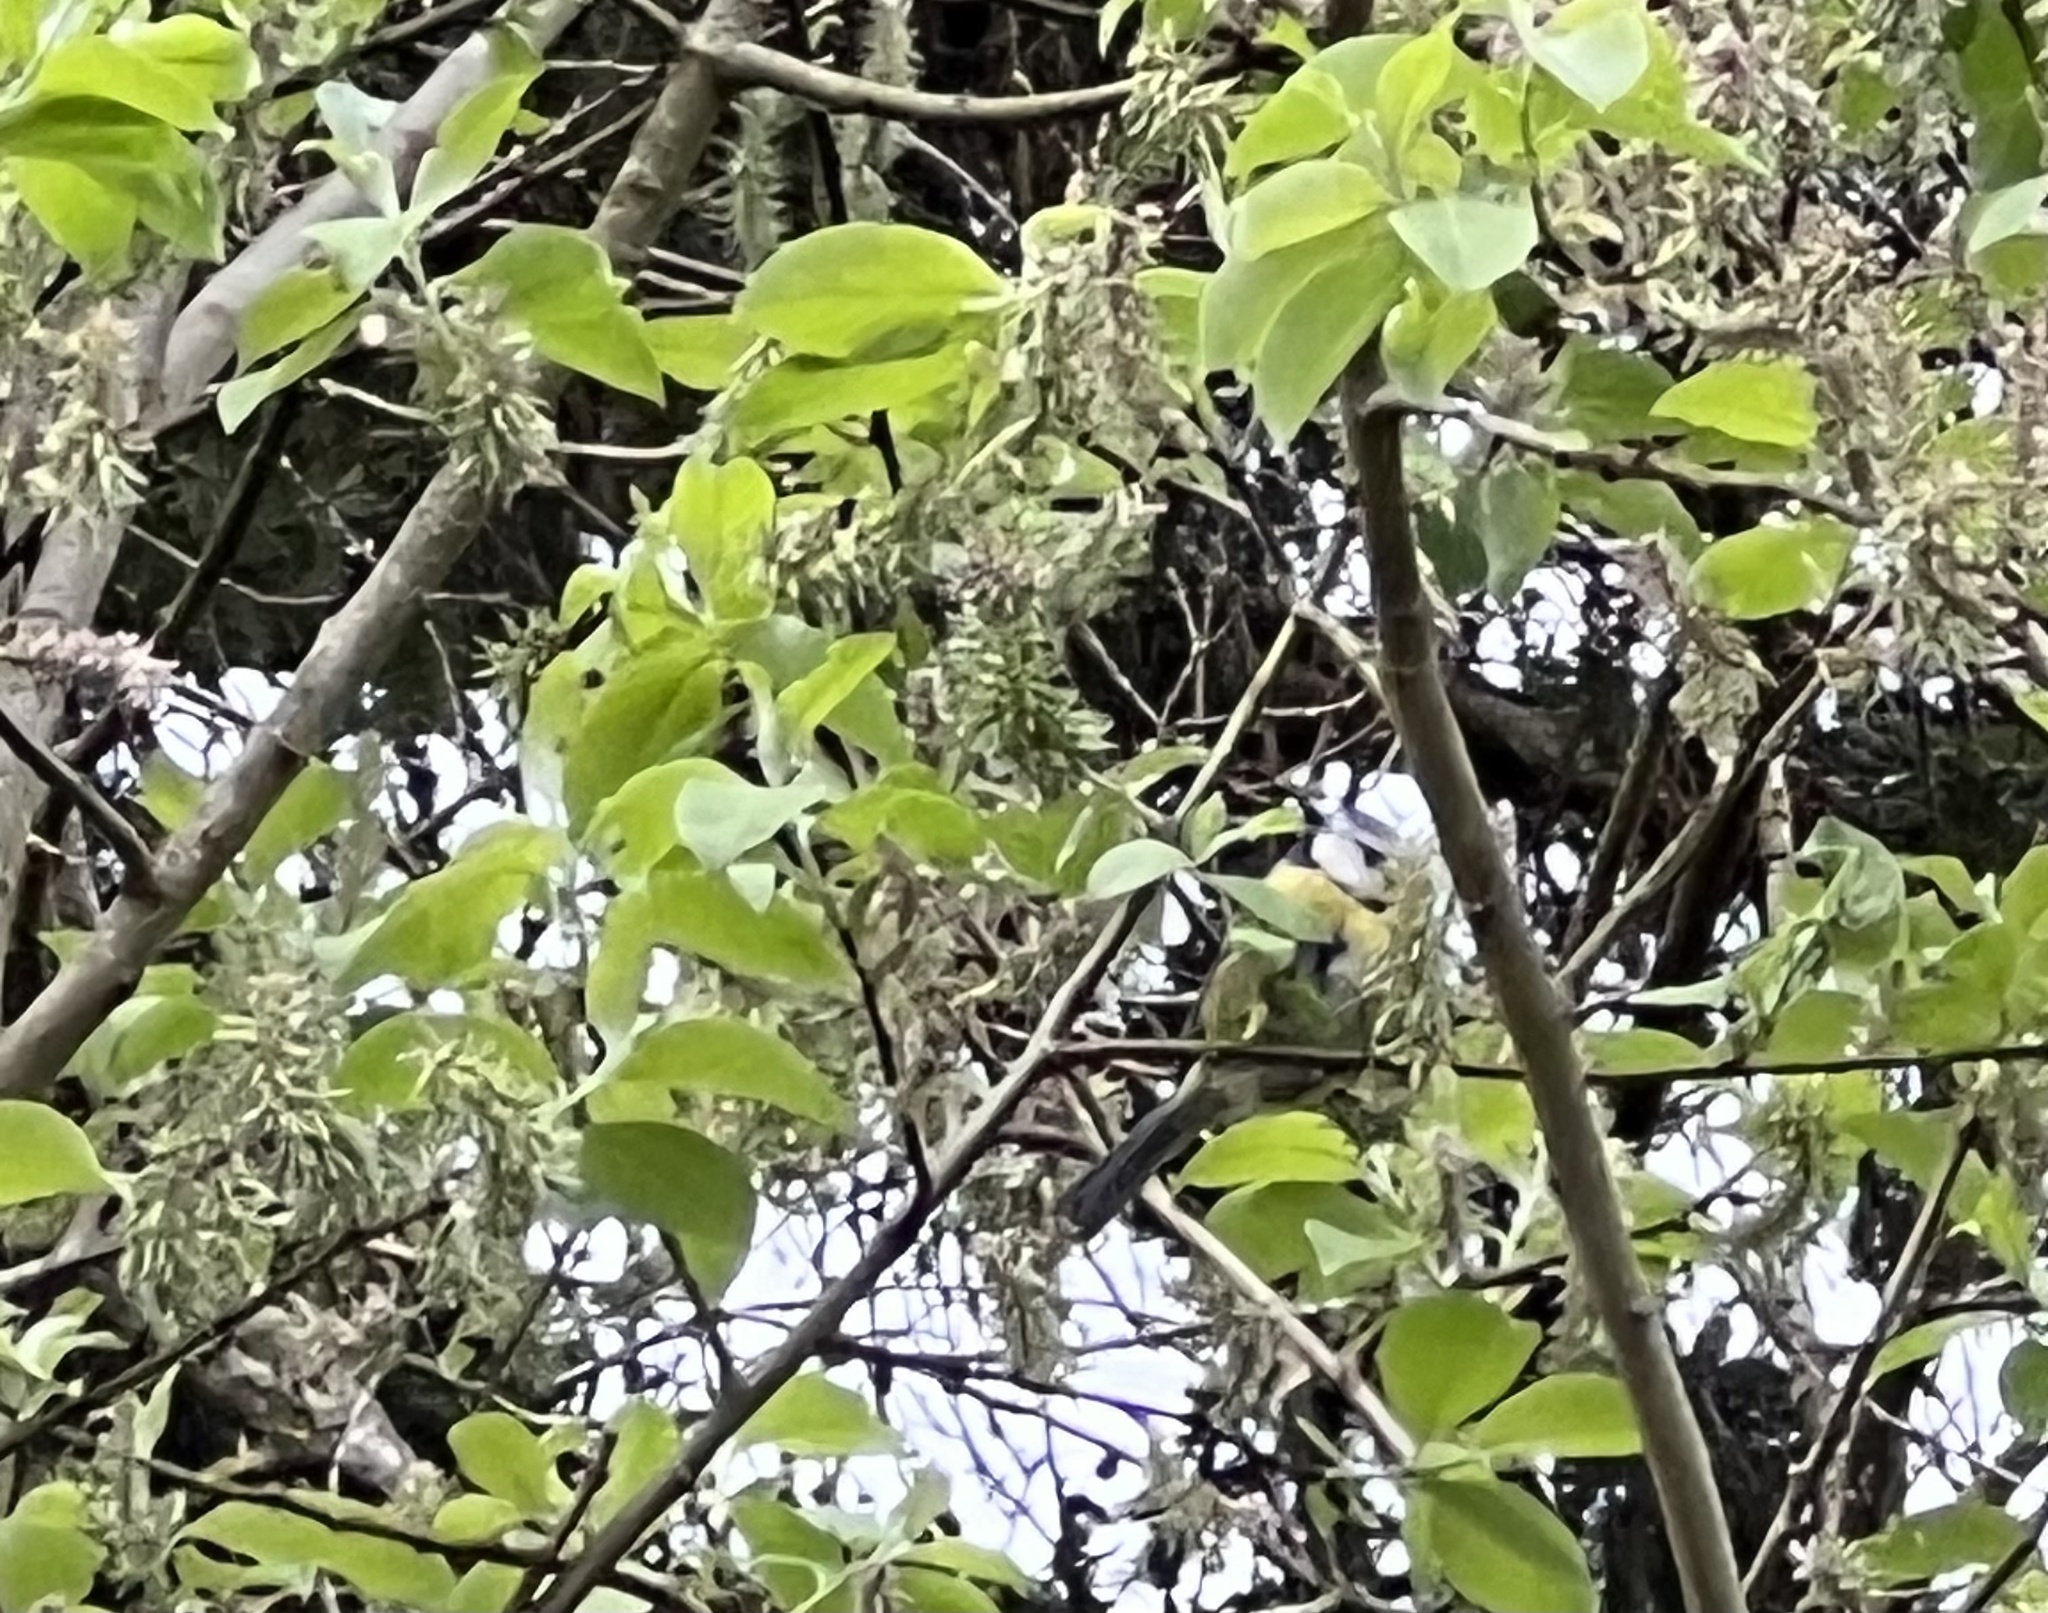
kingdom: Animalia
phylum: Chordata
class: Aves
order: Passeriformes
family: Paridae
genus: Cyanistes
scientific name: Cyanistes caeruleus
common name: Eurasian blue tit
